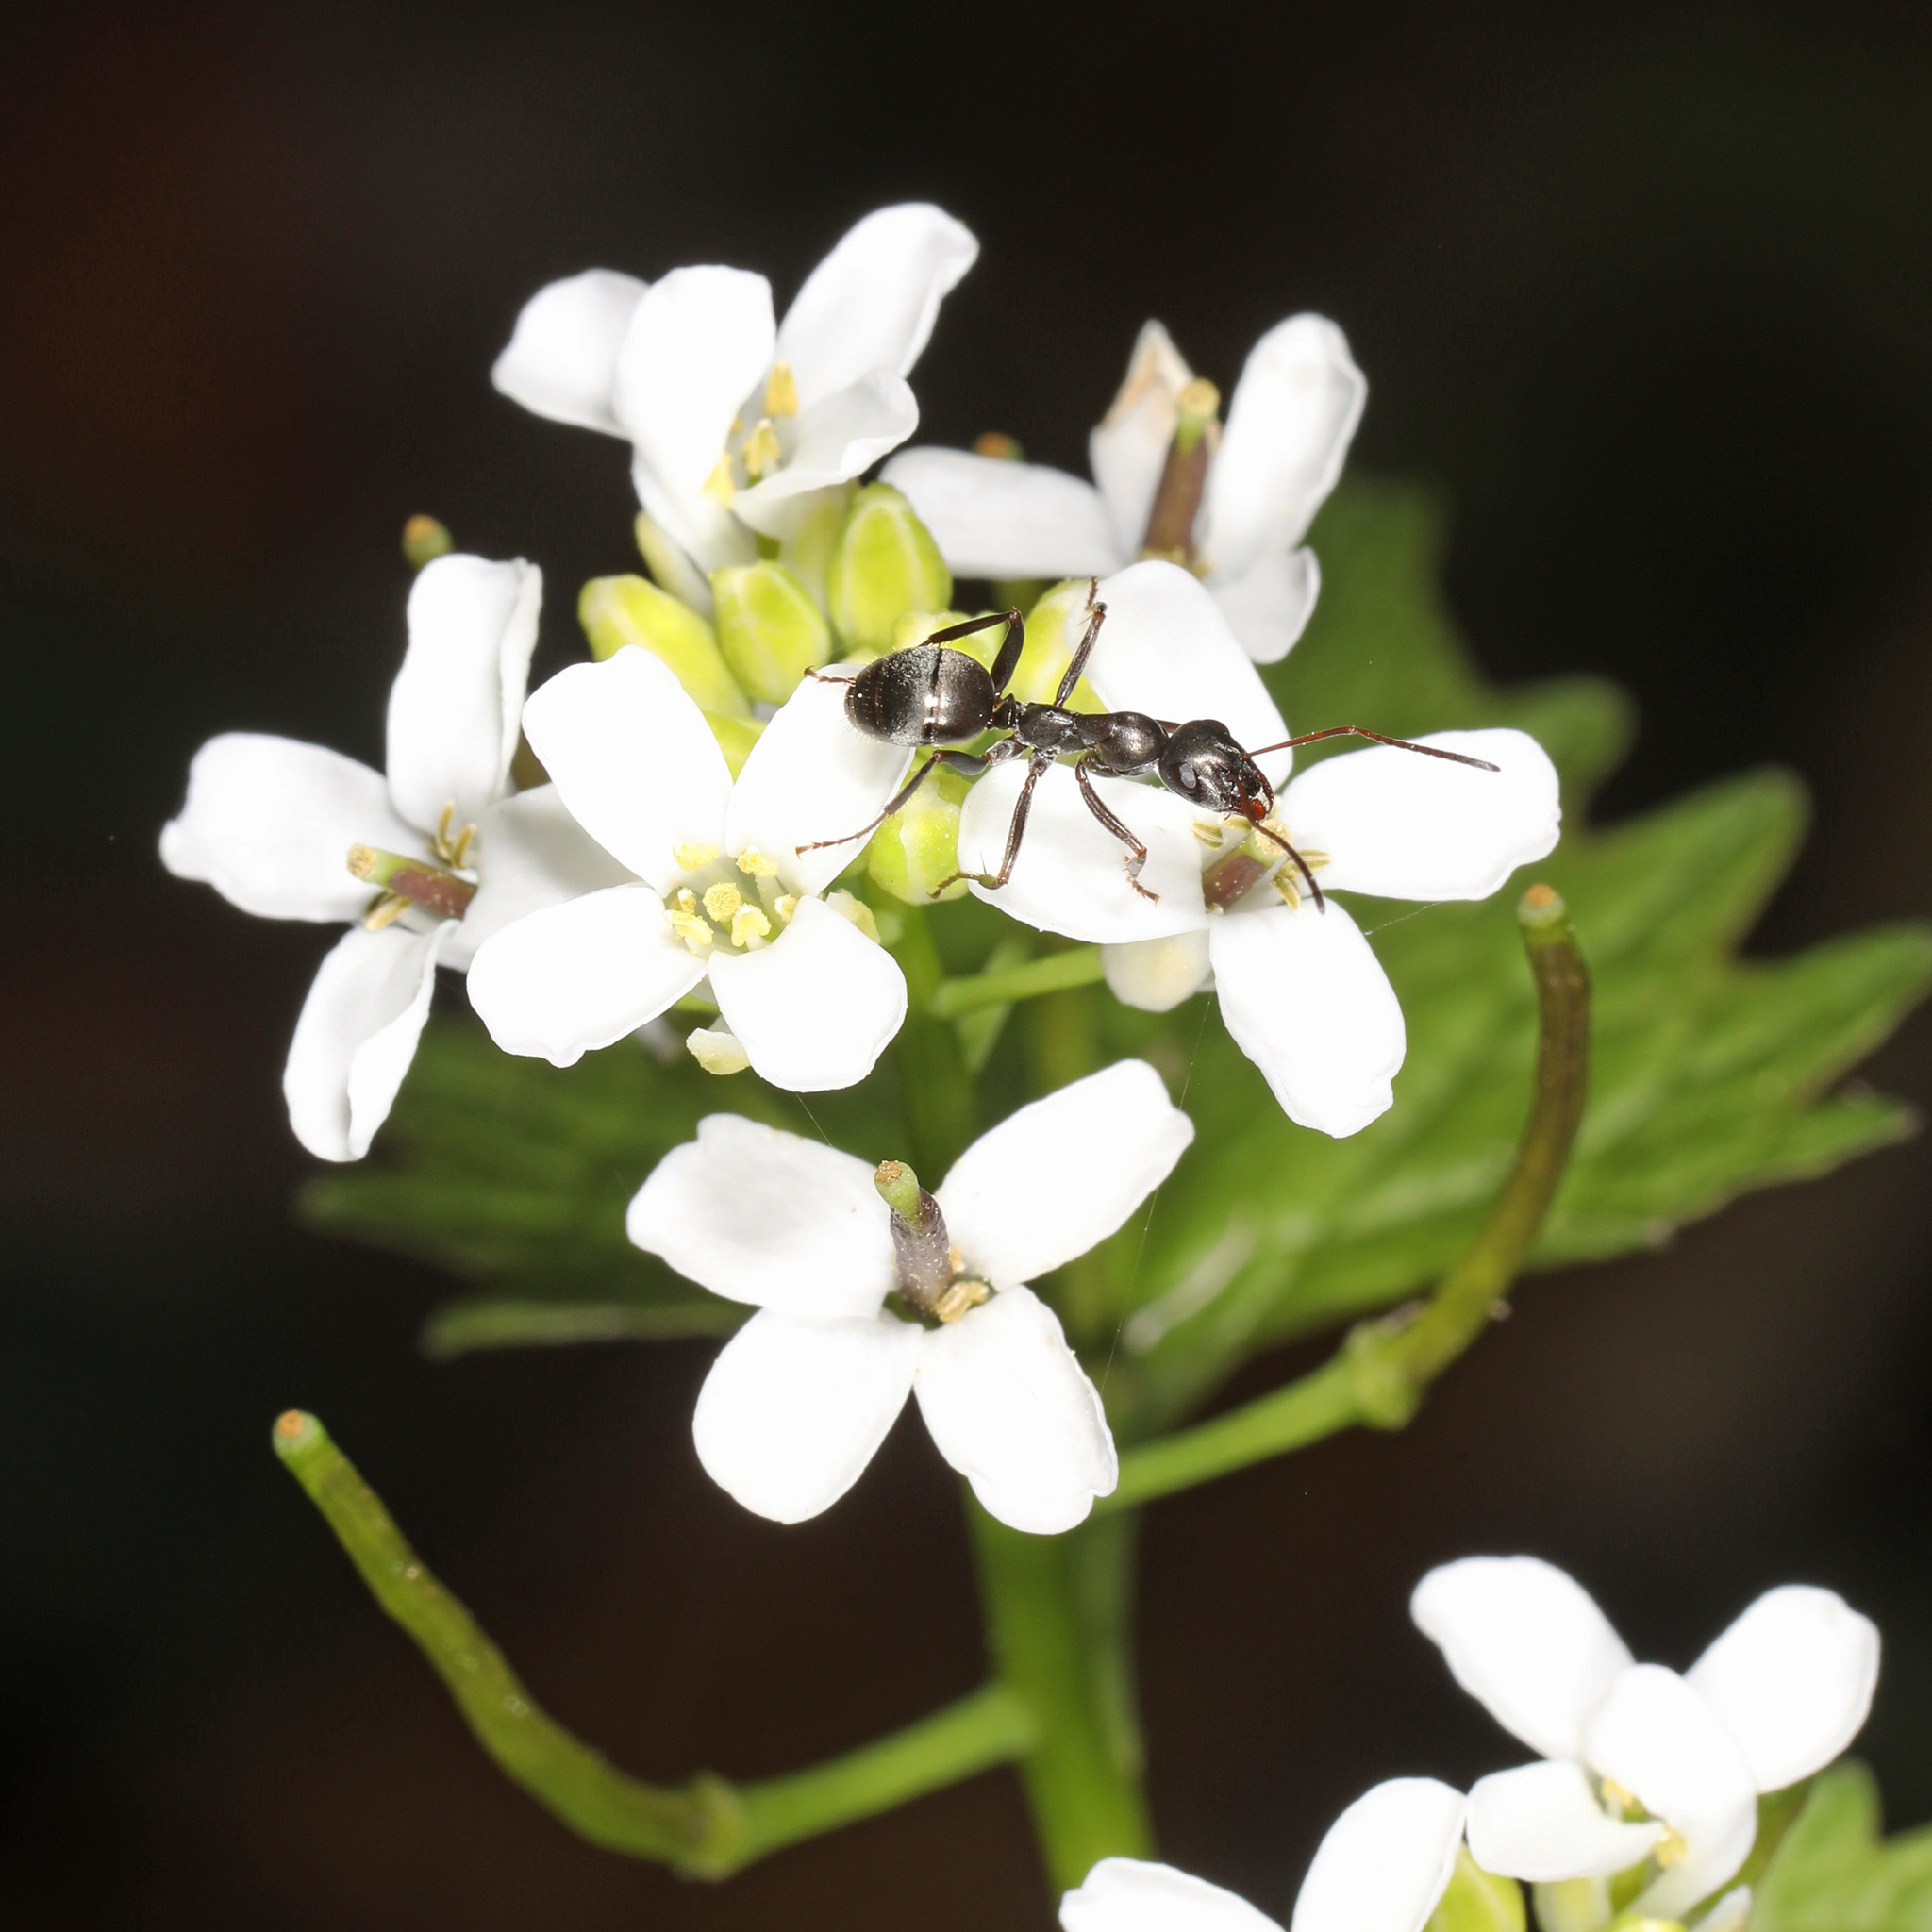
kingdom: Plantae
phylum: Tracheophyta
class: Magnoliopsida
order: Brassicales
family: Brassicaceae
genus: Alliaria
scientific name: Alliaria petiolata
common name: Garlic mustard
